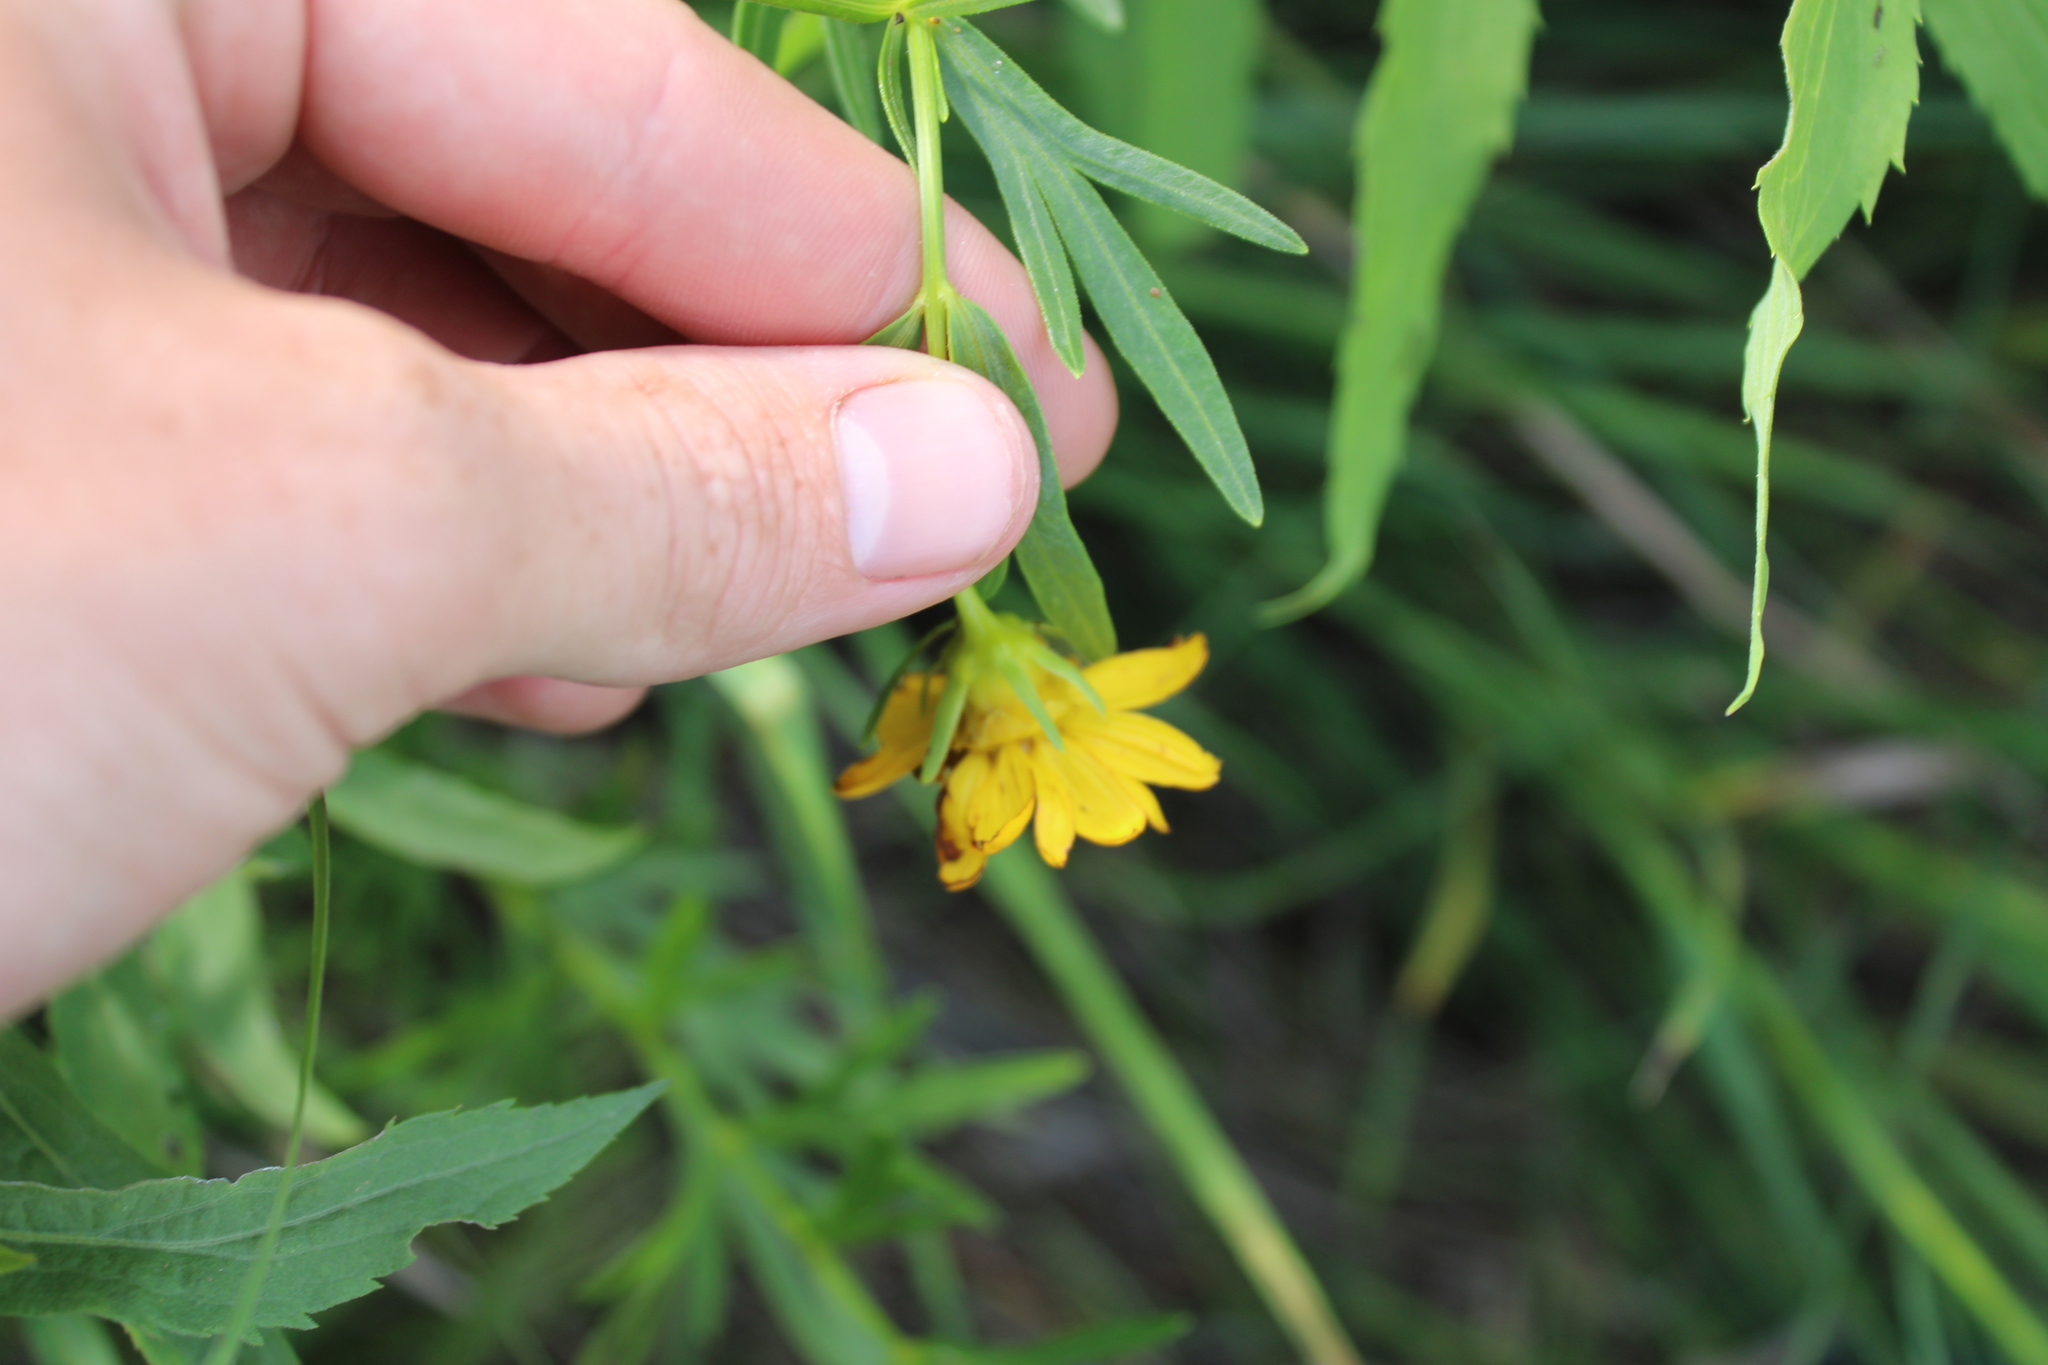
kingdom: Plantae
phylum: Tracheophyta
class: Magnoliopsida
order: Asterales
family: Asteraceae
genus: Coreopsis
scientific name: Coreopsis palmata
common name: Prairie coreopsis
